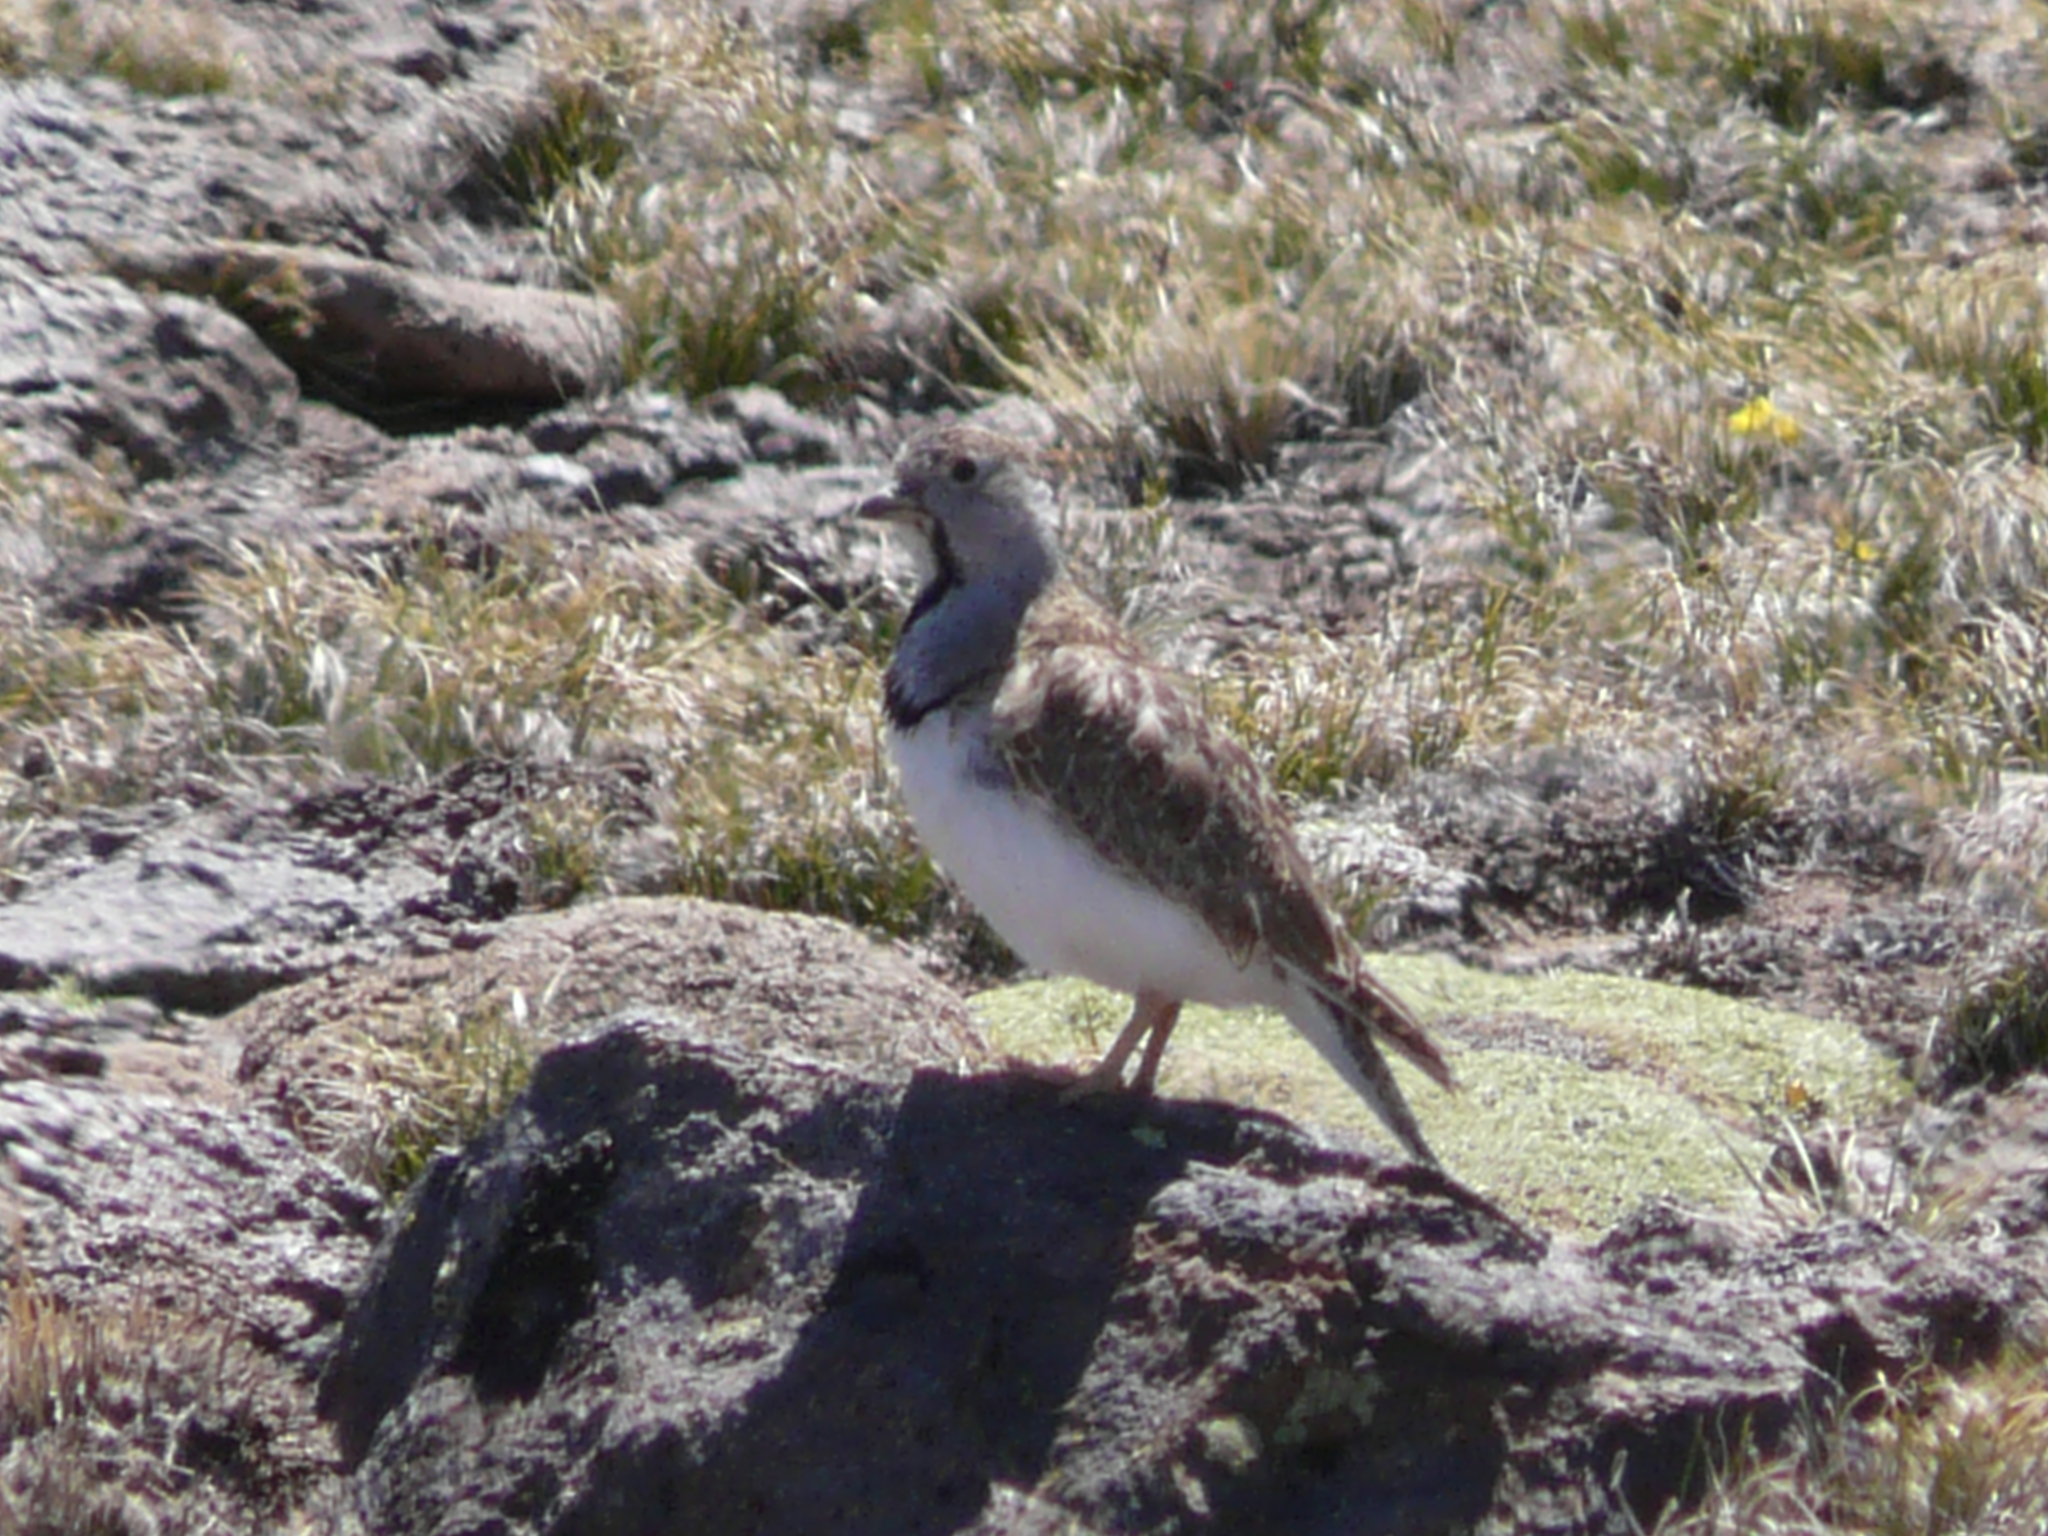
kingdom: Animalia
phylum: Chordata
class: Aves
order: Charadriiformes
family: Thinocoridae
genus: Thinocorus
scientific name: Thinocorus rumicivorus
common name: Least seedsnipe
